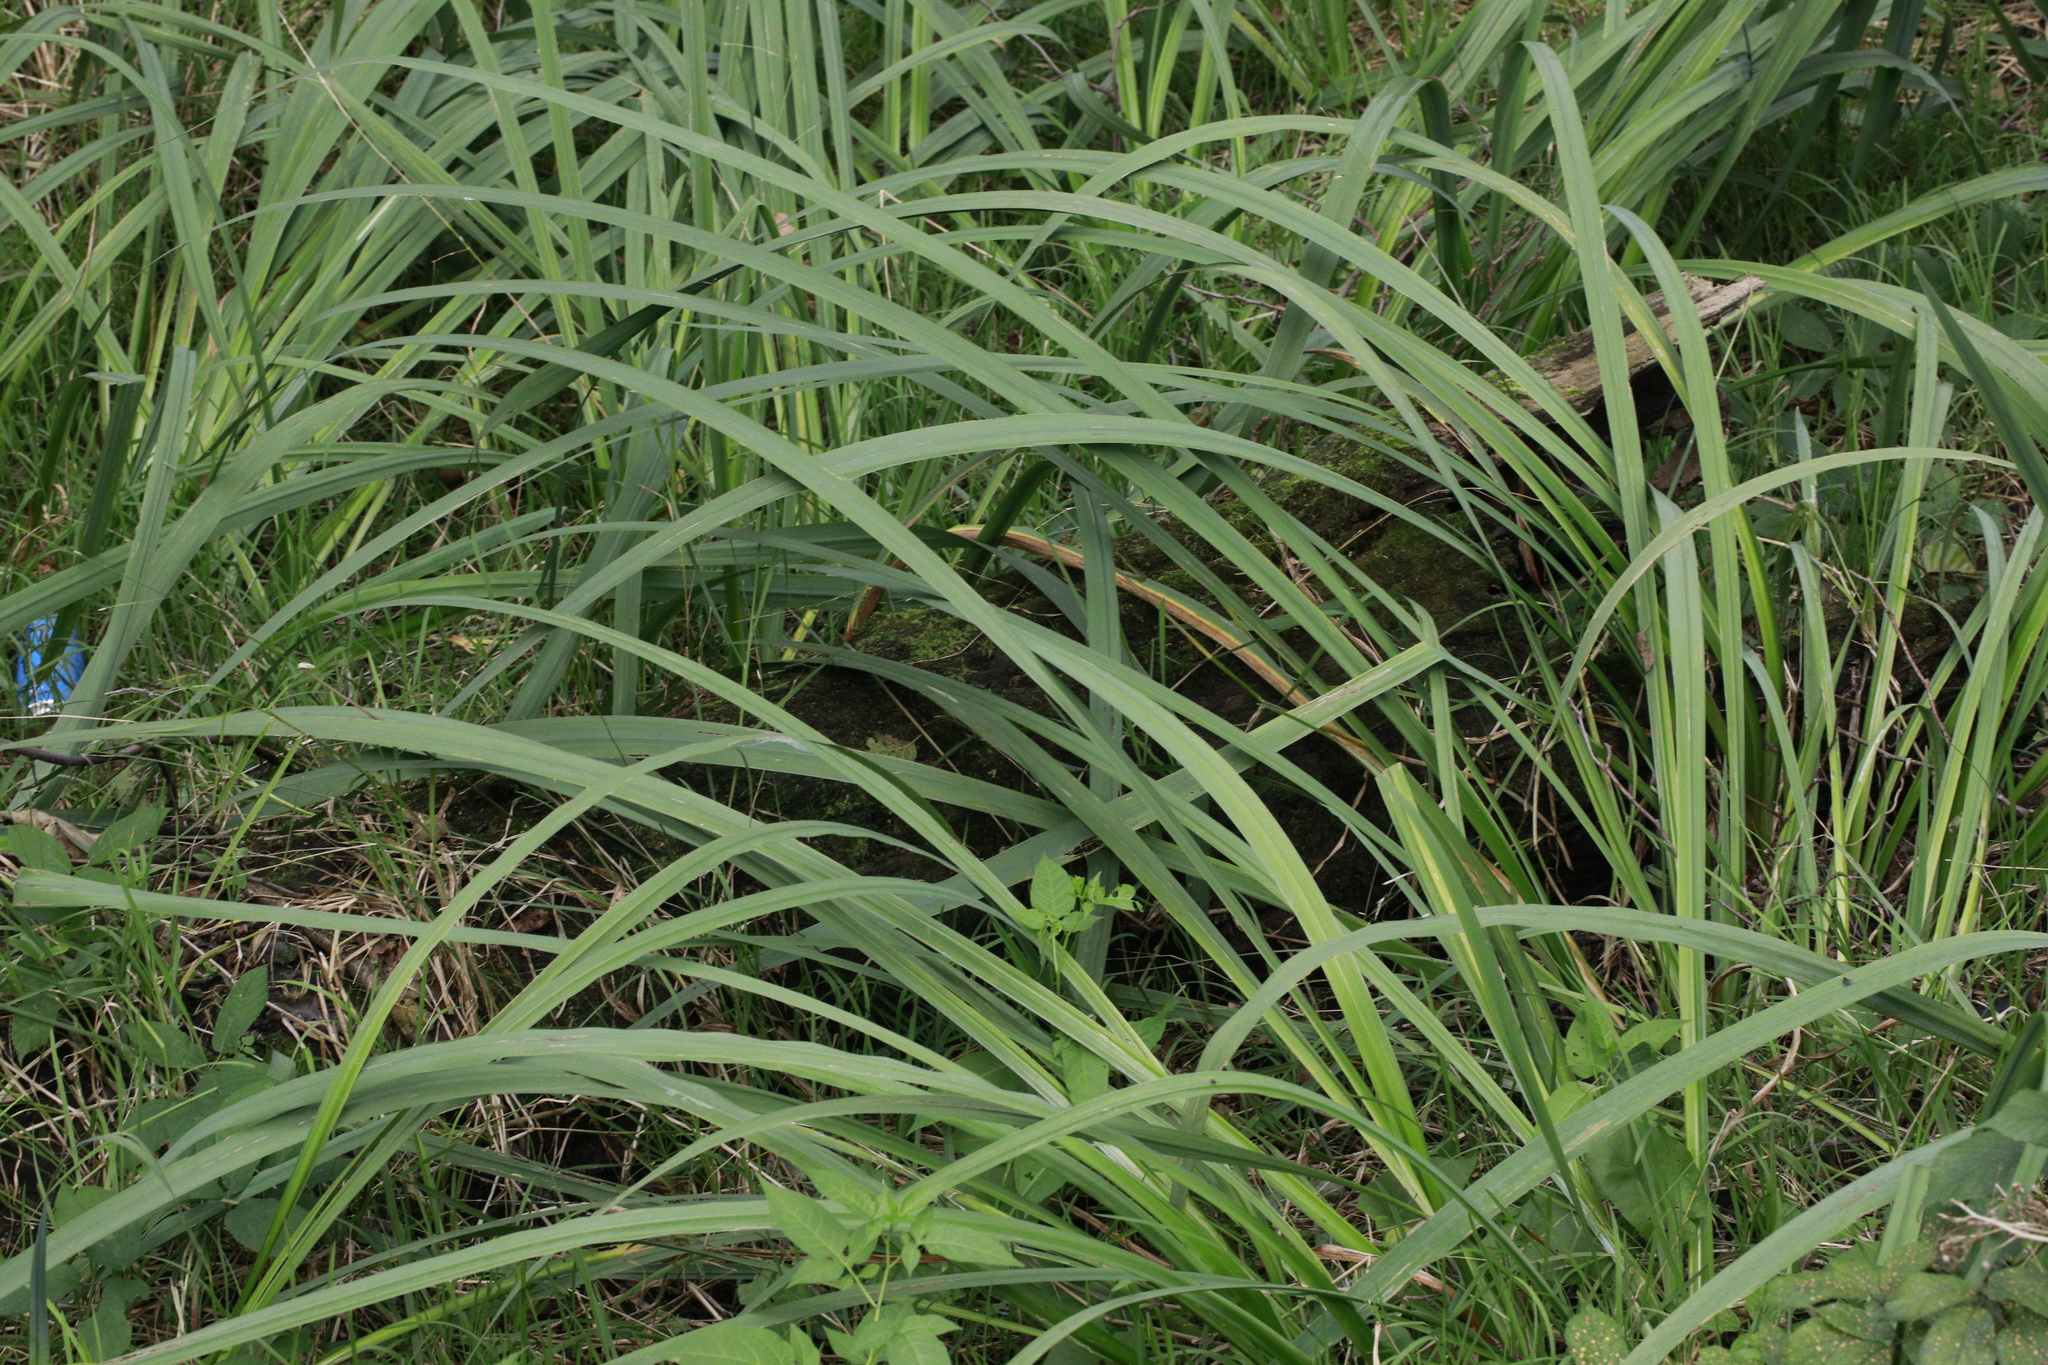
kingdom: Plantae
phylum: Tracheophyta
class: Liliopsida
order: Asparagales
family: Iridaceae
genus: Iris
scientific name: Iris pseudacorus
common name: Yellow flag
